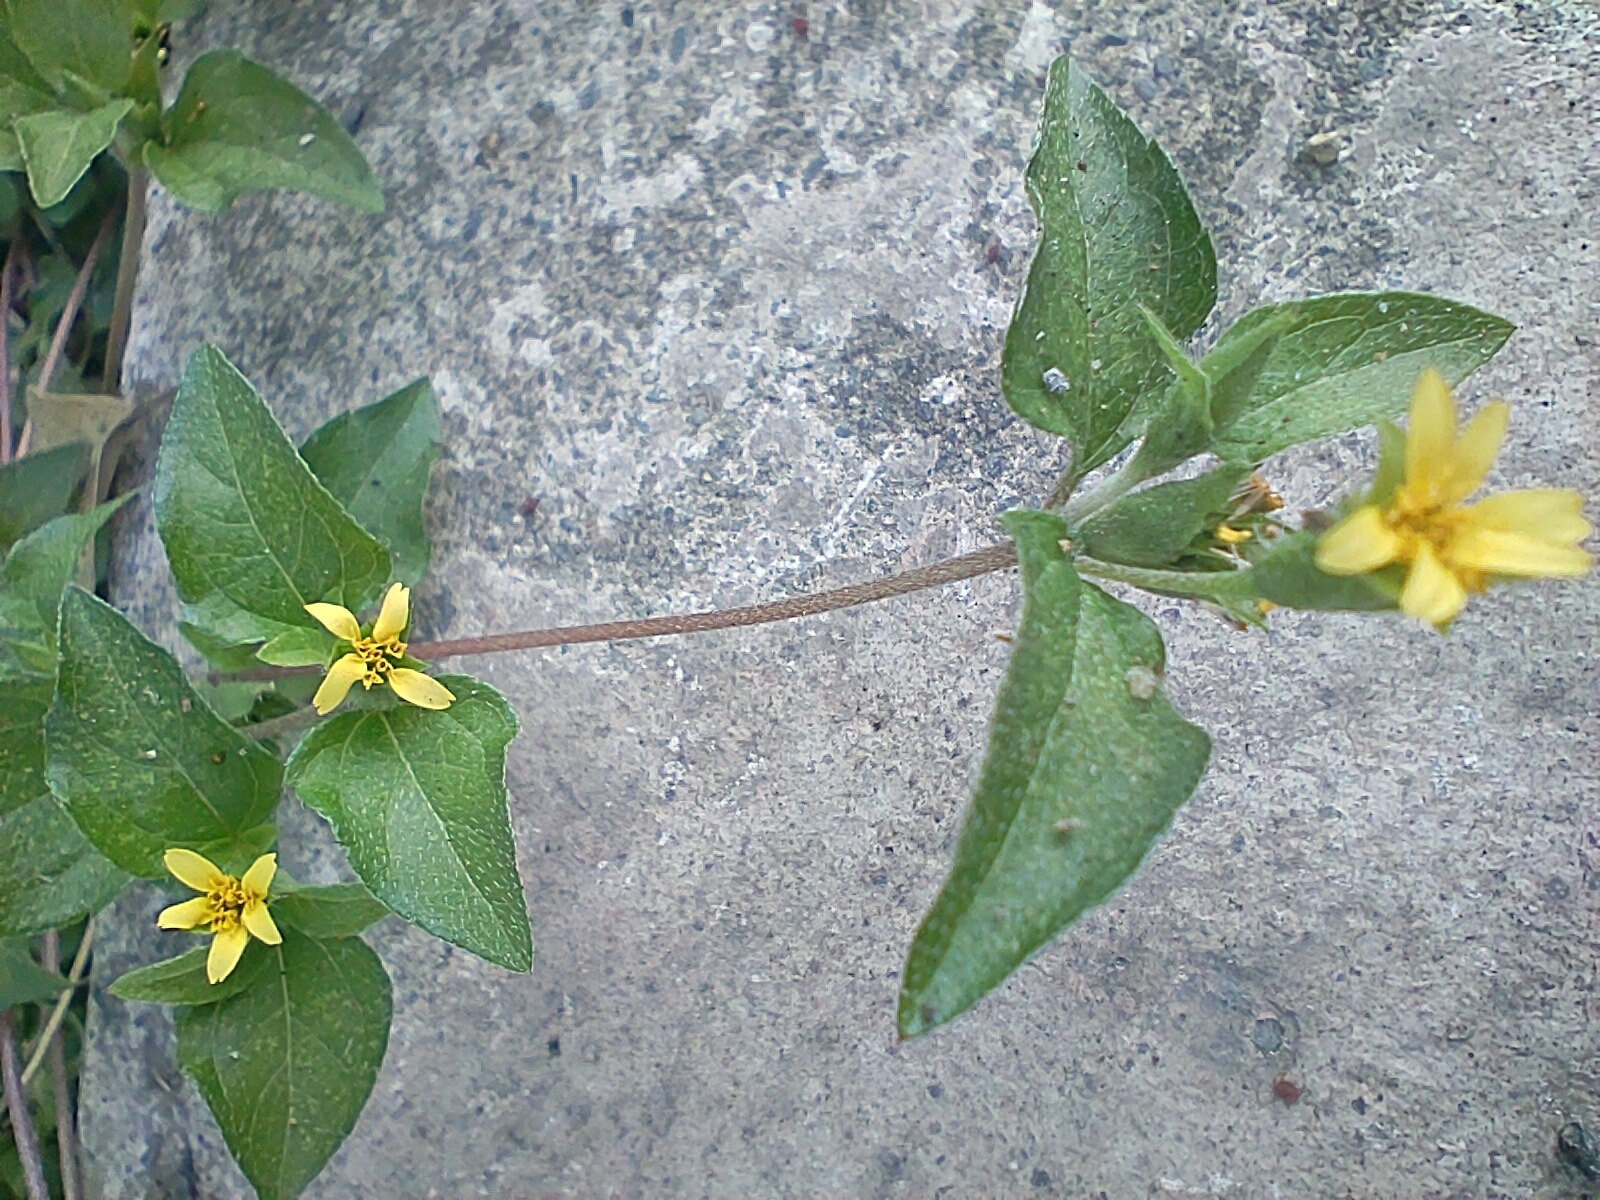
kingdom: Plantae
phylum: Tracheophyta
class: Magnoliopsida
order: Asterales
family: Asteraceae
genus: Calyptocarpus
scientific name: Calyptocarpus vialis
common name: Straggler daisy
